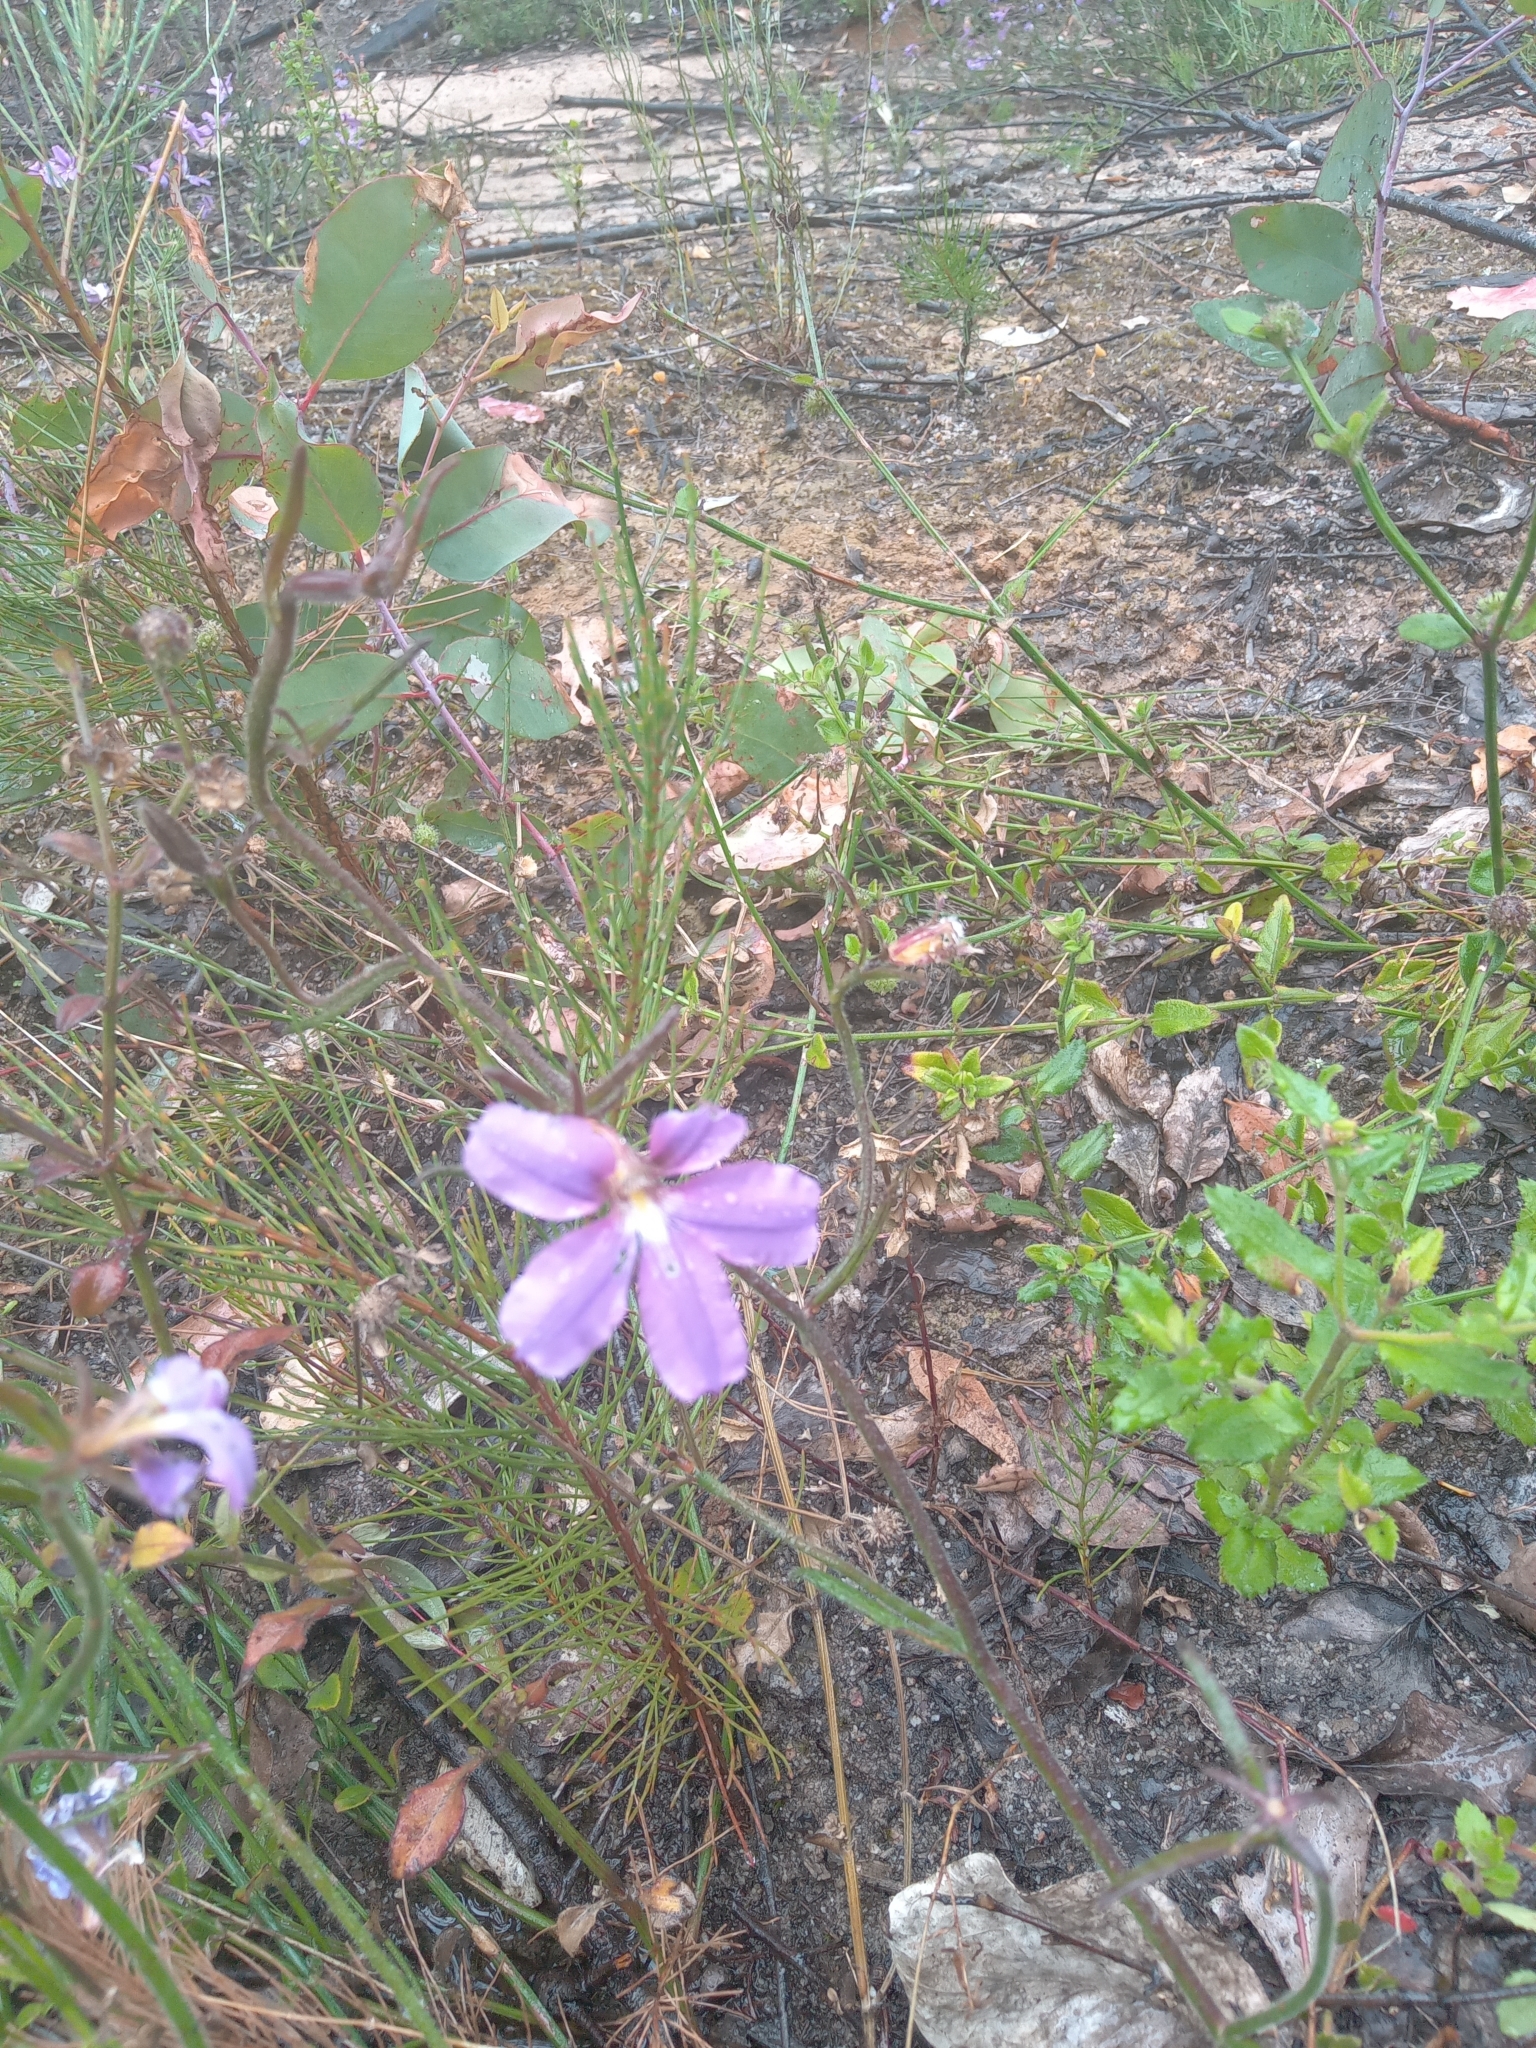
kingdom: Plantae
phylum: Tracheophyta
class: Magnoliopsida
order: Asterales
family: Goodeniaceae
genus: Scaevola
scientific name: Scaevola ramosissima
